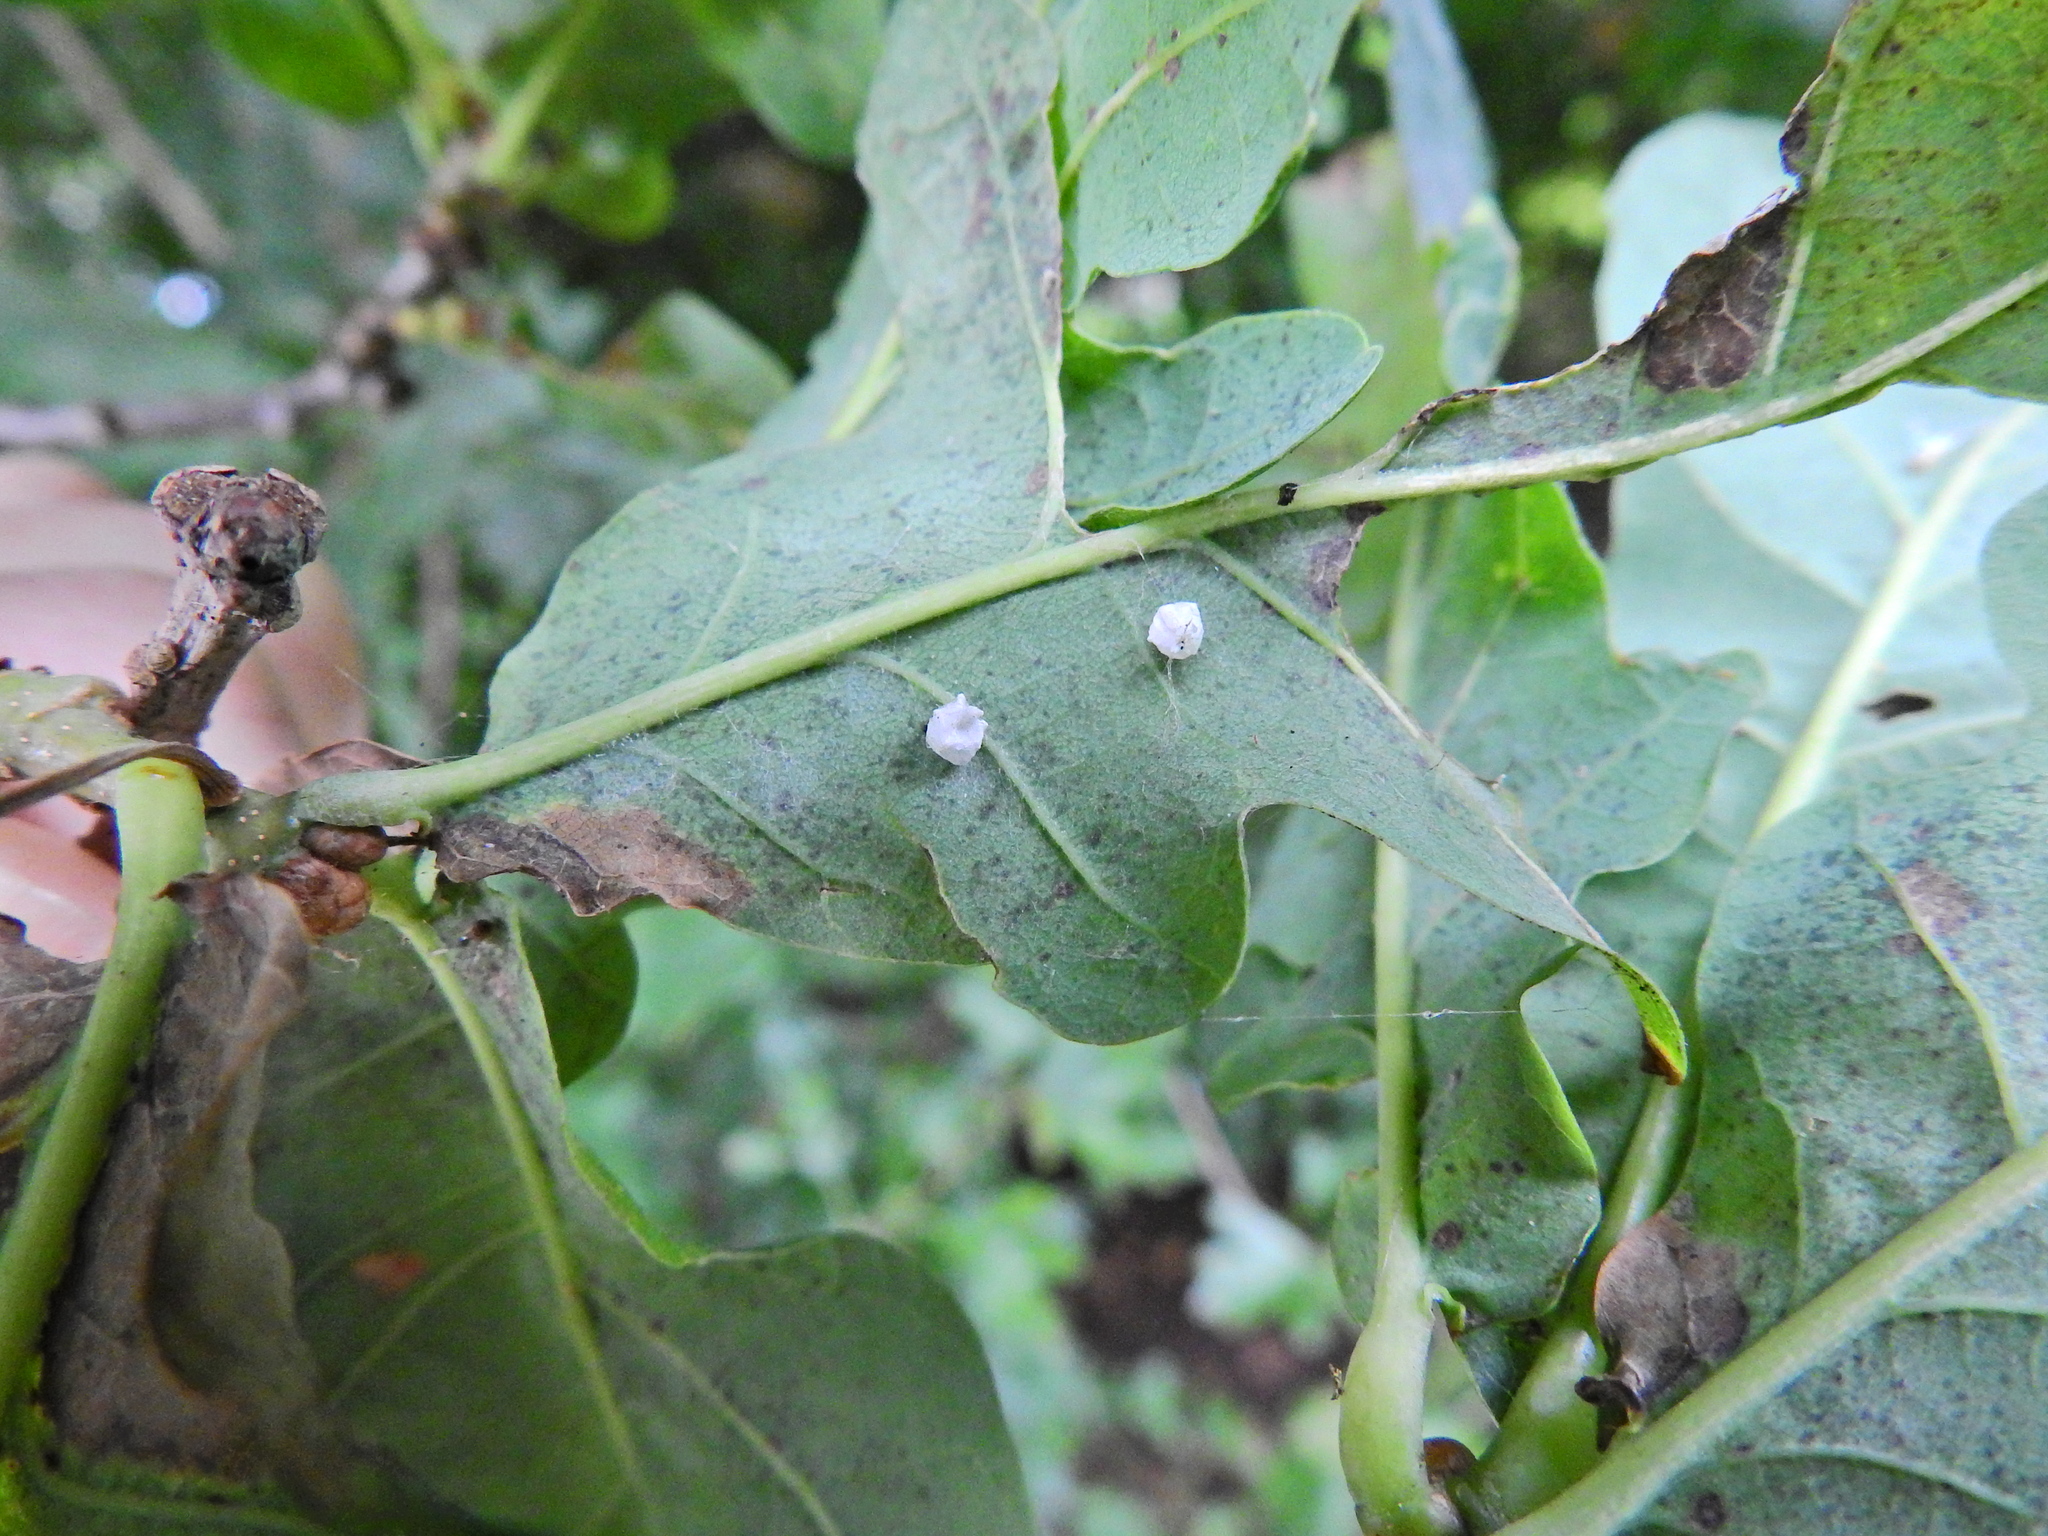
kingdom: Animalia
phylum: Arthropoda
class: Arachnida
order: Araneae
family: Theridiidae
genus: Paidiscura
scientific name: Paidiscura pallens
